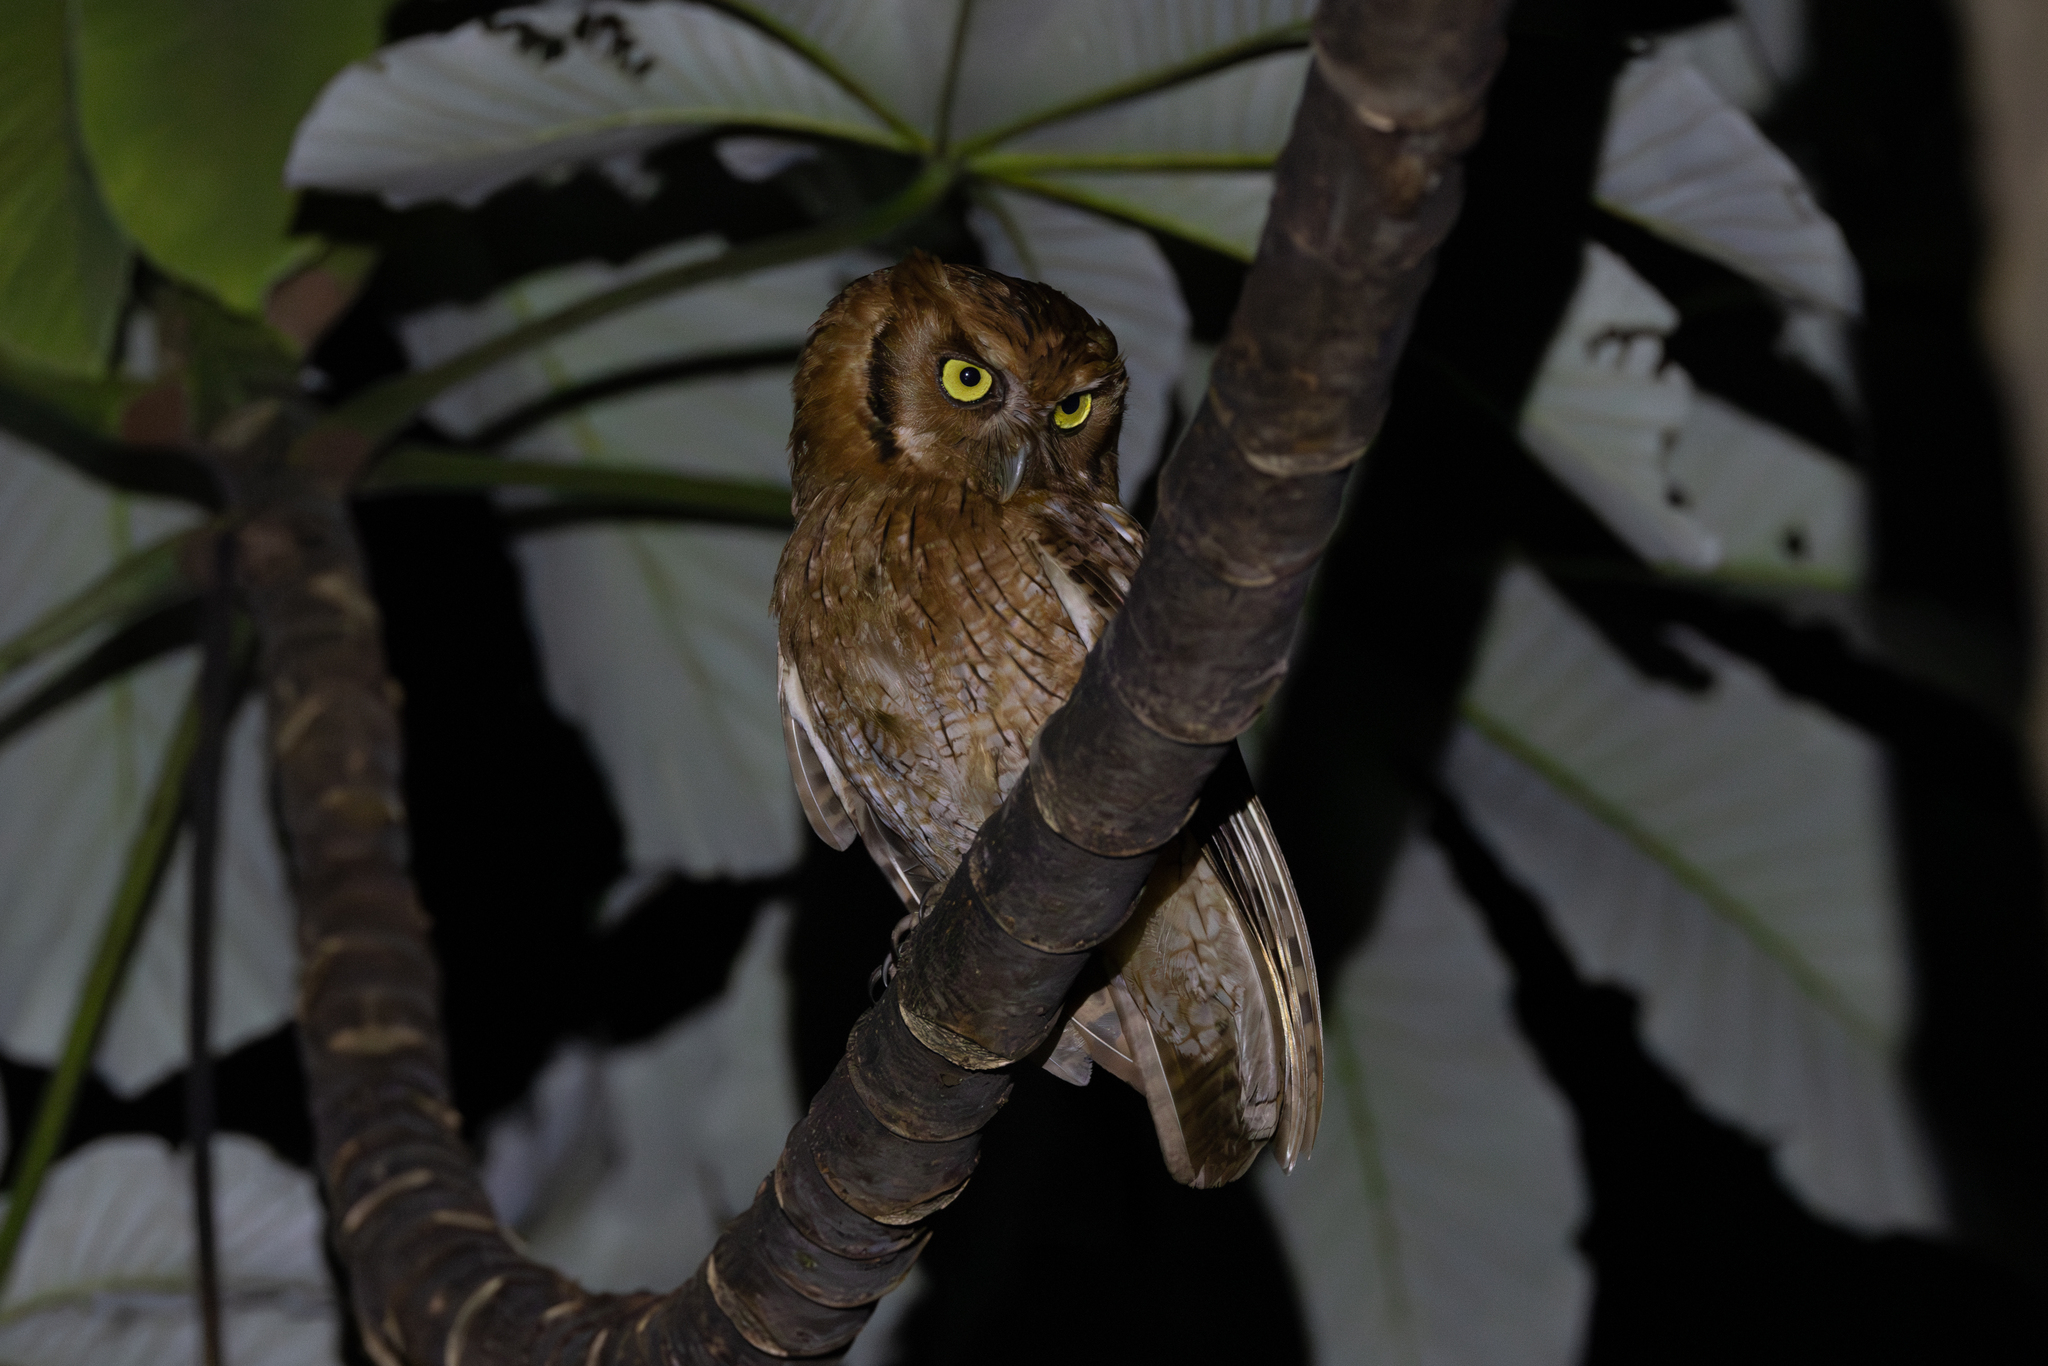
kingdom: Animalia
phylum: Chordata
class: Aves
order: Strigiformes
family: Strigidae
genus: Megascops
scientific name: Megascops choliba
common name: Tropical screech-owl
